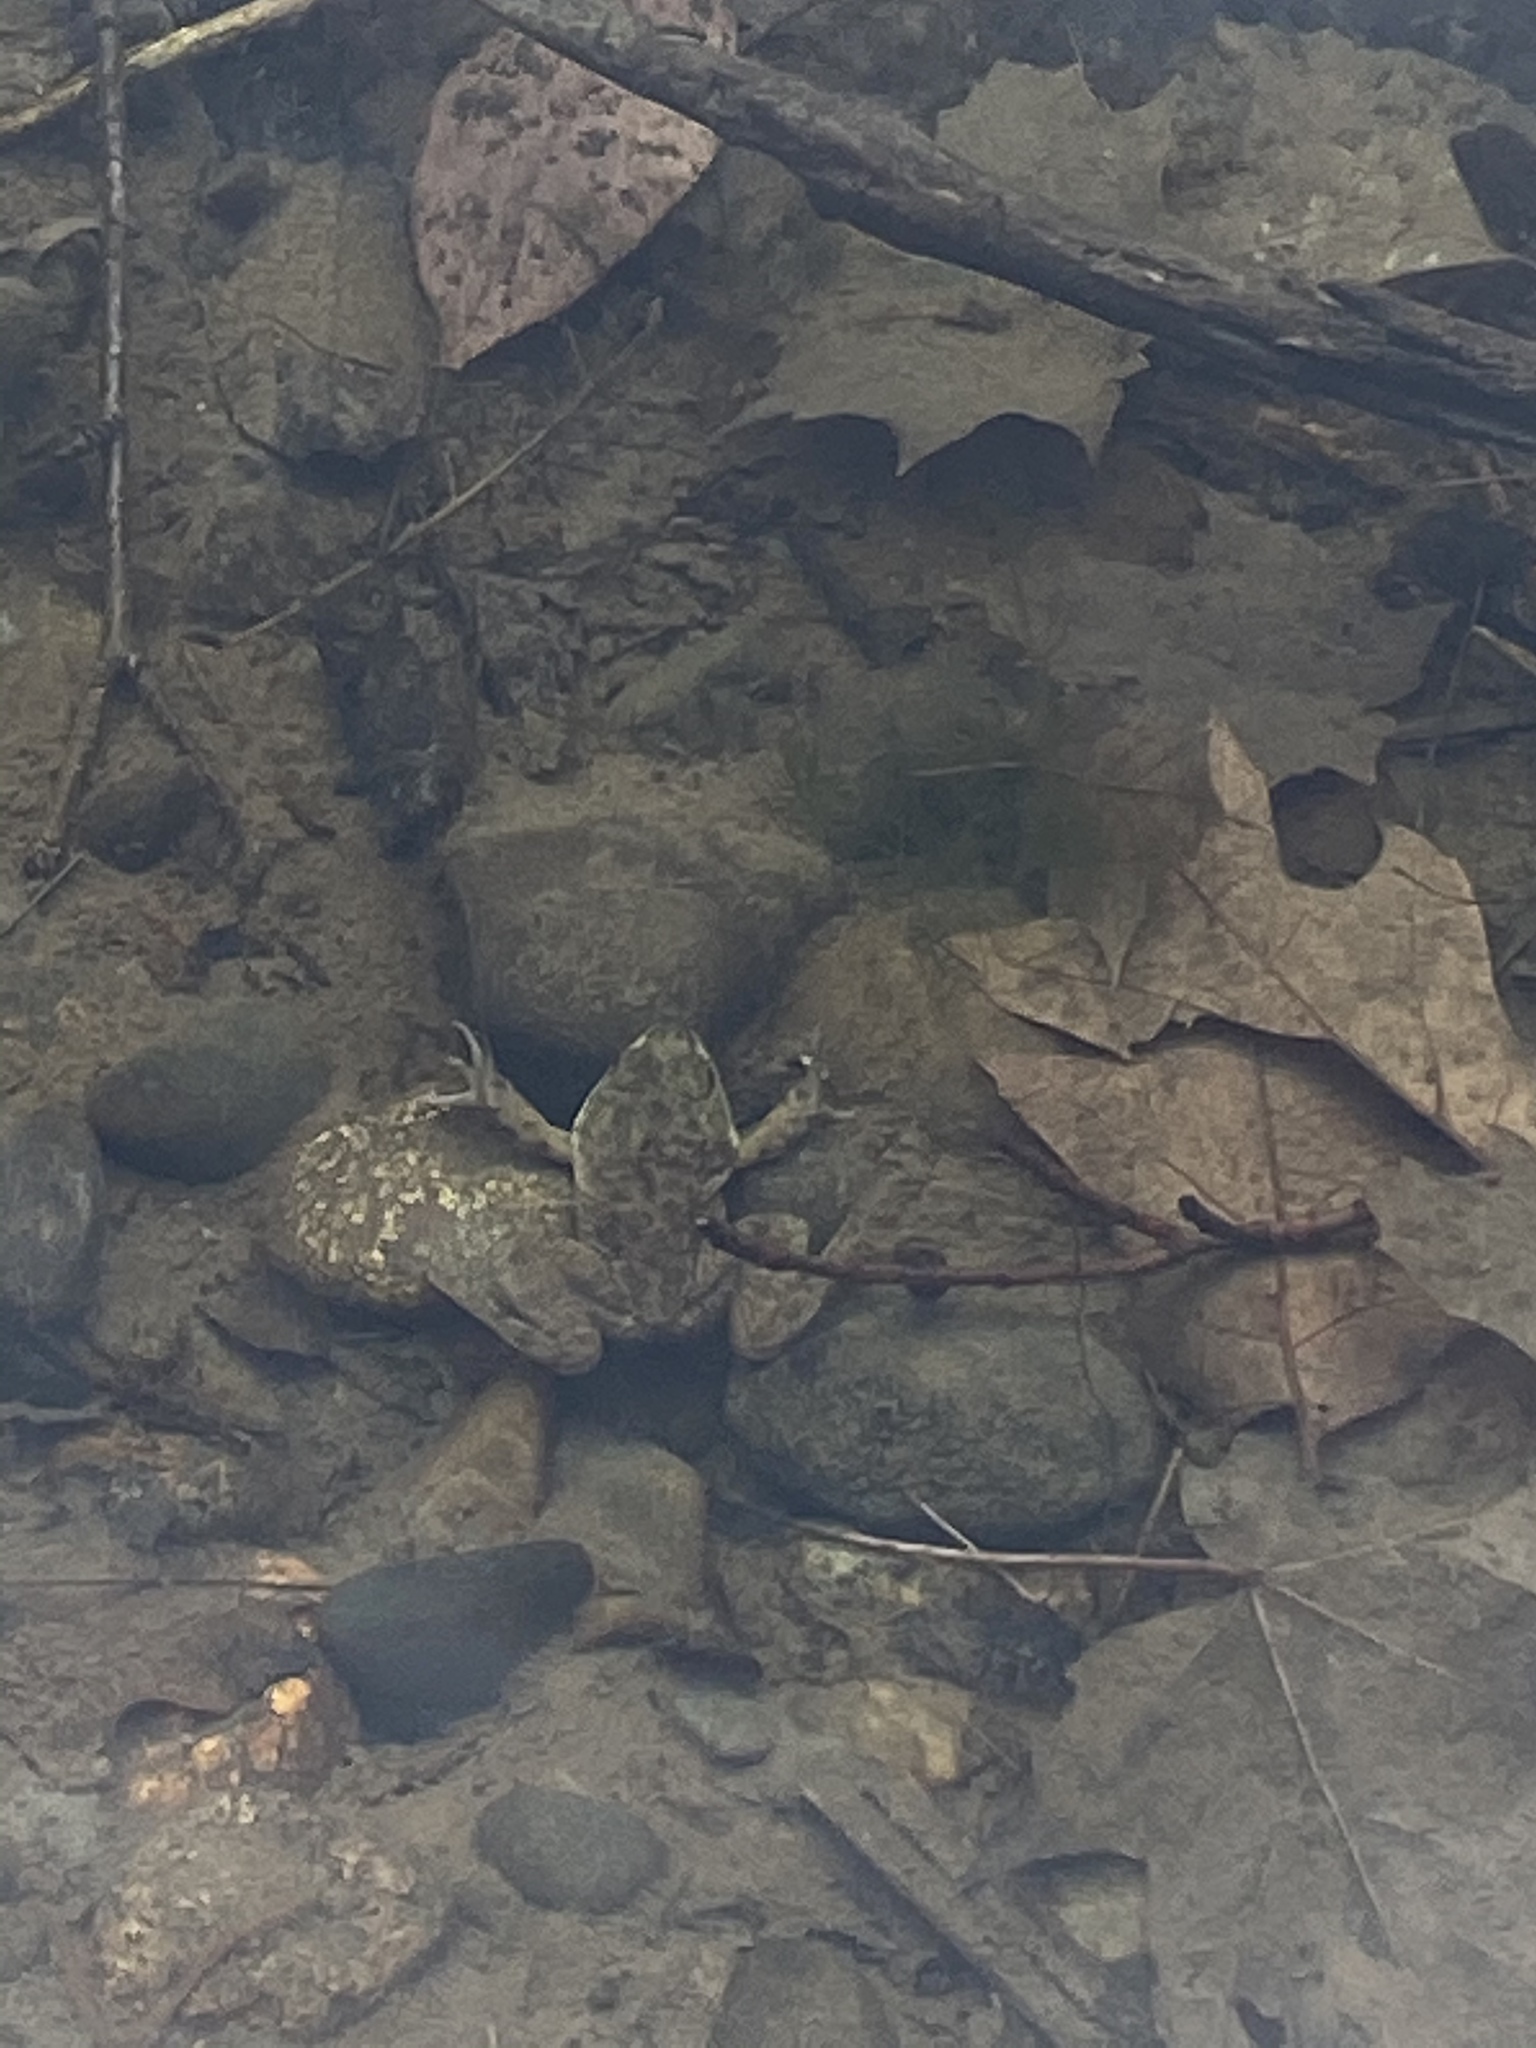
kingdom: Animalia
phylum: Chordata
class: Amphibia
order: Anura
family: Ranidae
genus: Lithobates
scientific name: Lithobates catesbeianus
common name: American bullfrog
